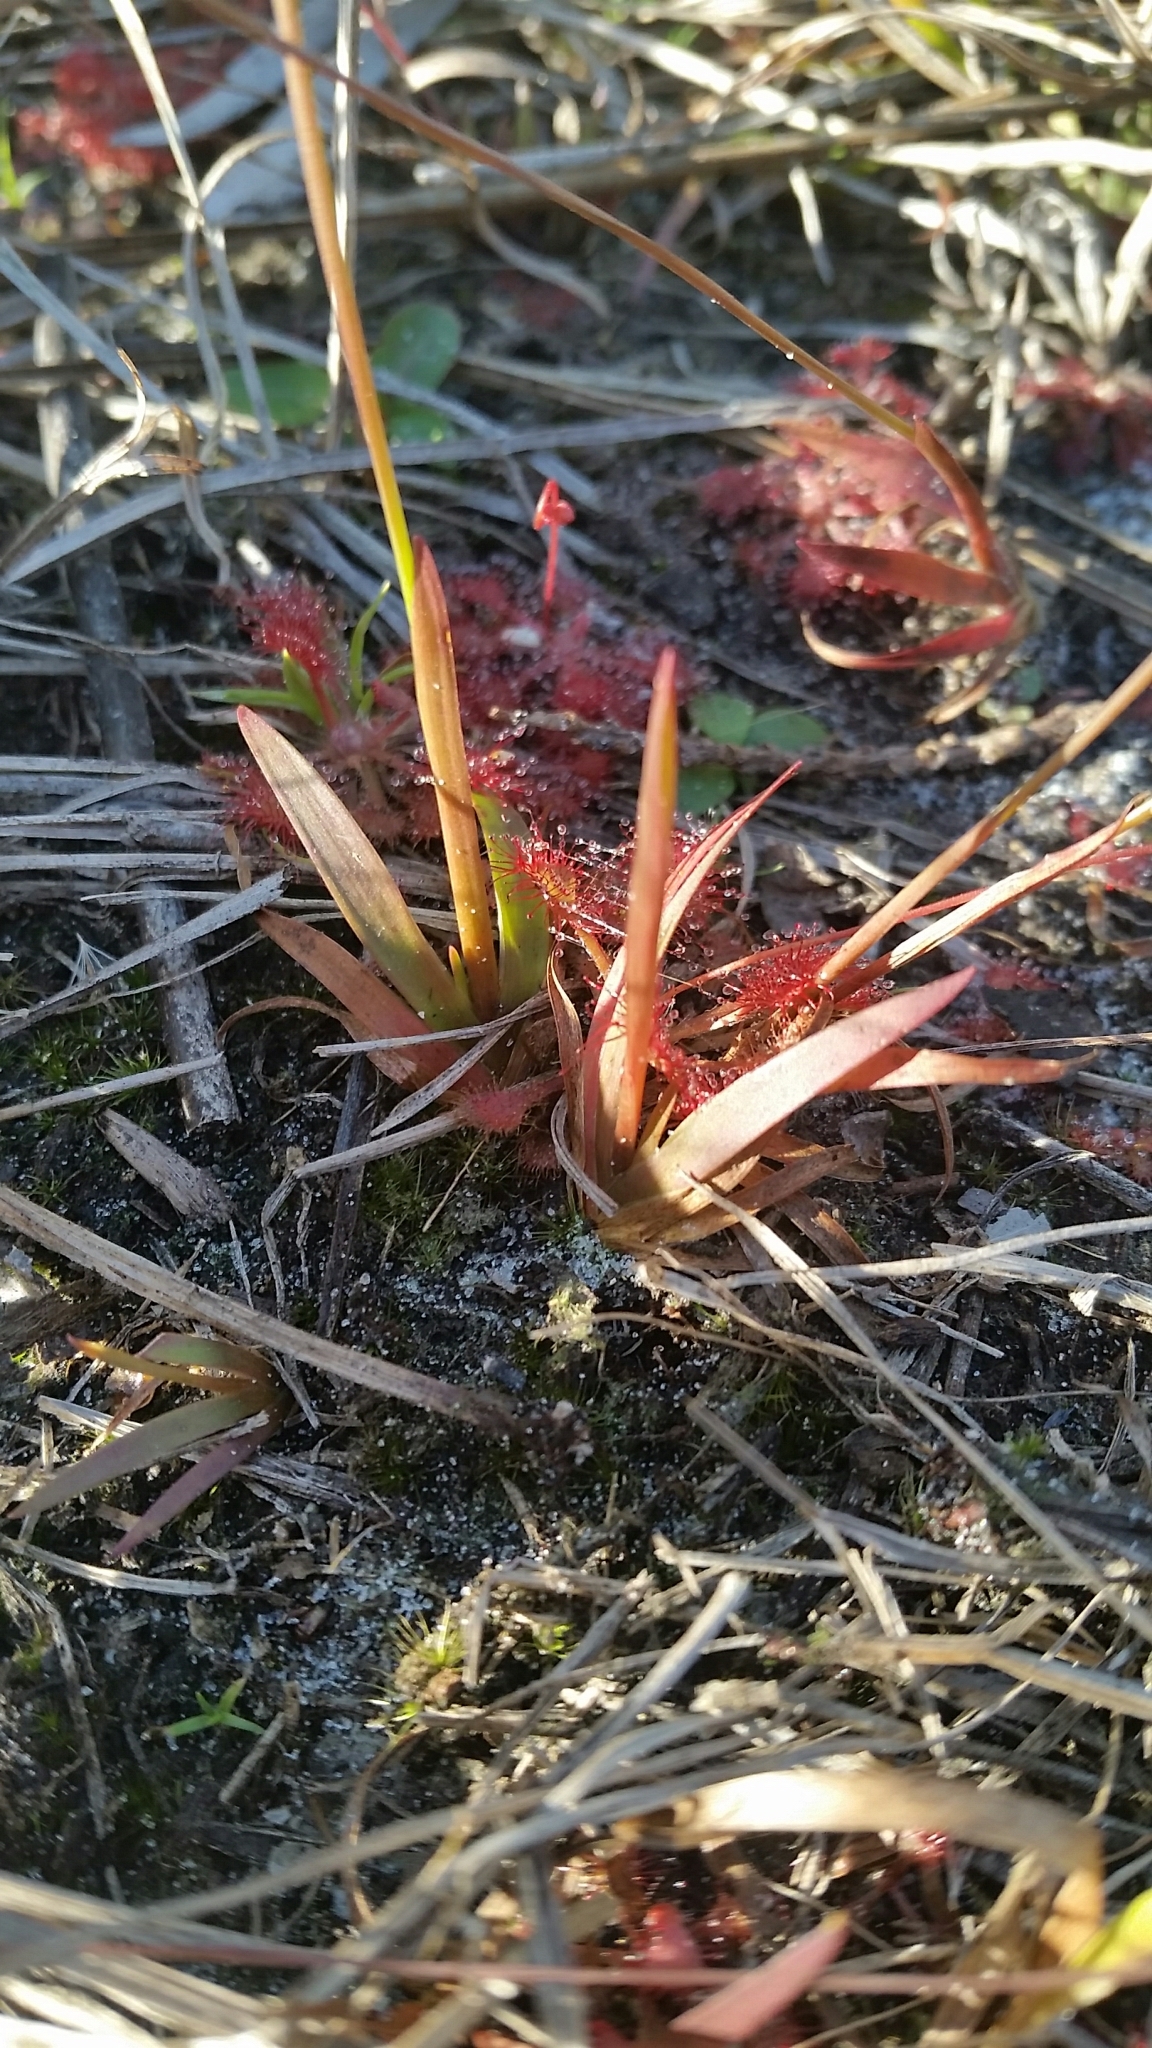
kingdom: Plantae
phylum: Tracheophyta
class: Liliopsida
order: Poales
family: Xyridaceae
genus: Xyris
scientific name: Xyris flabelliformis
